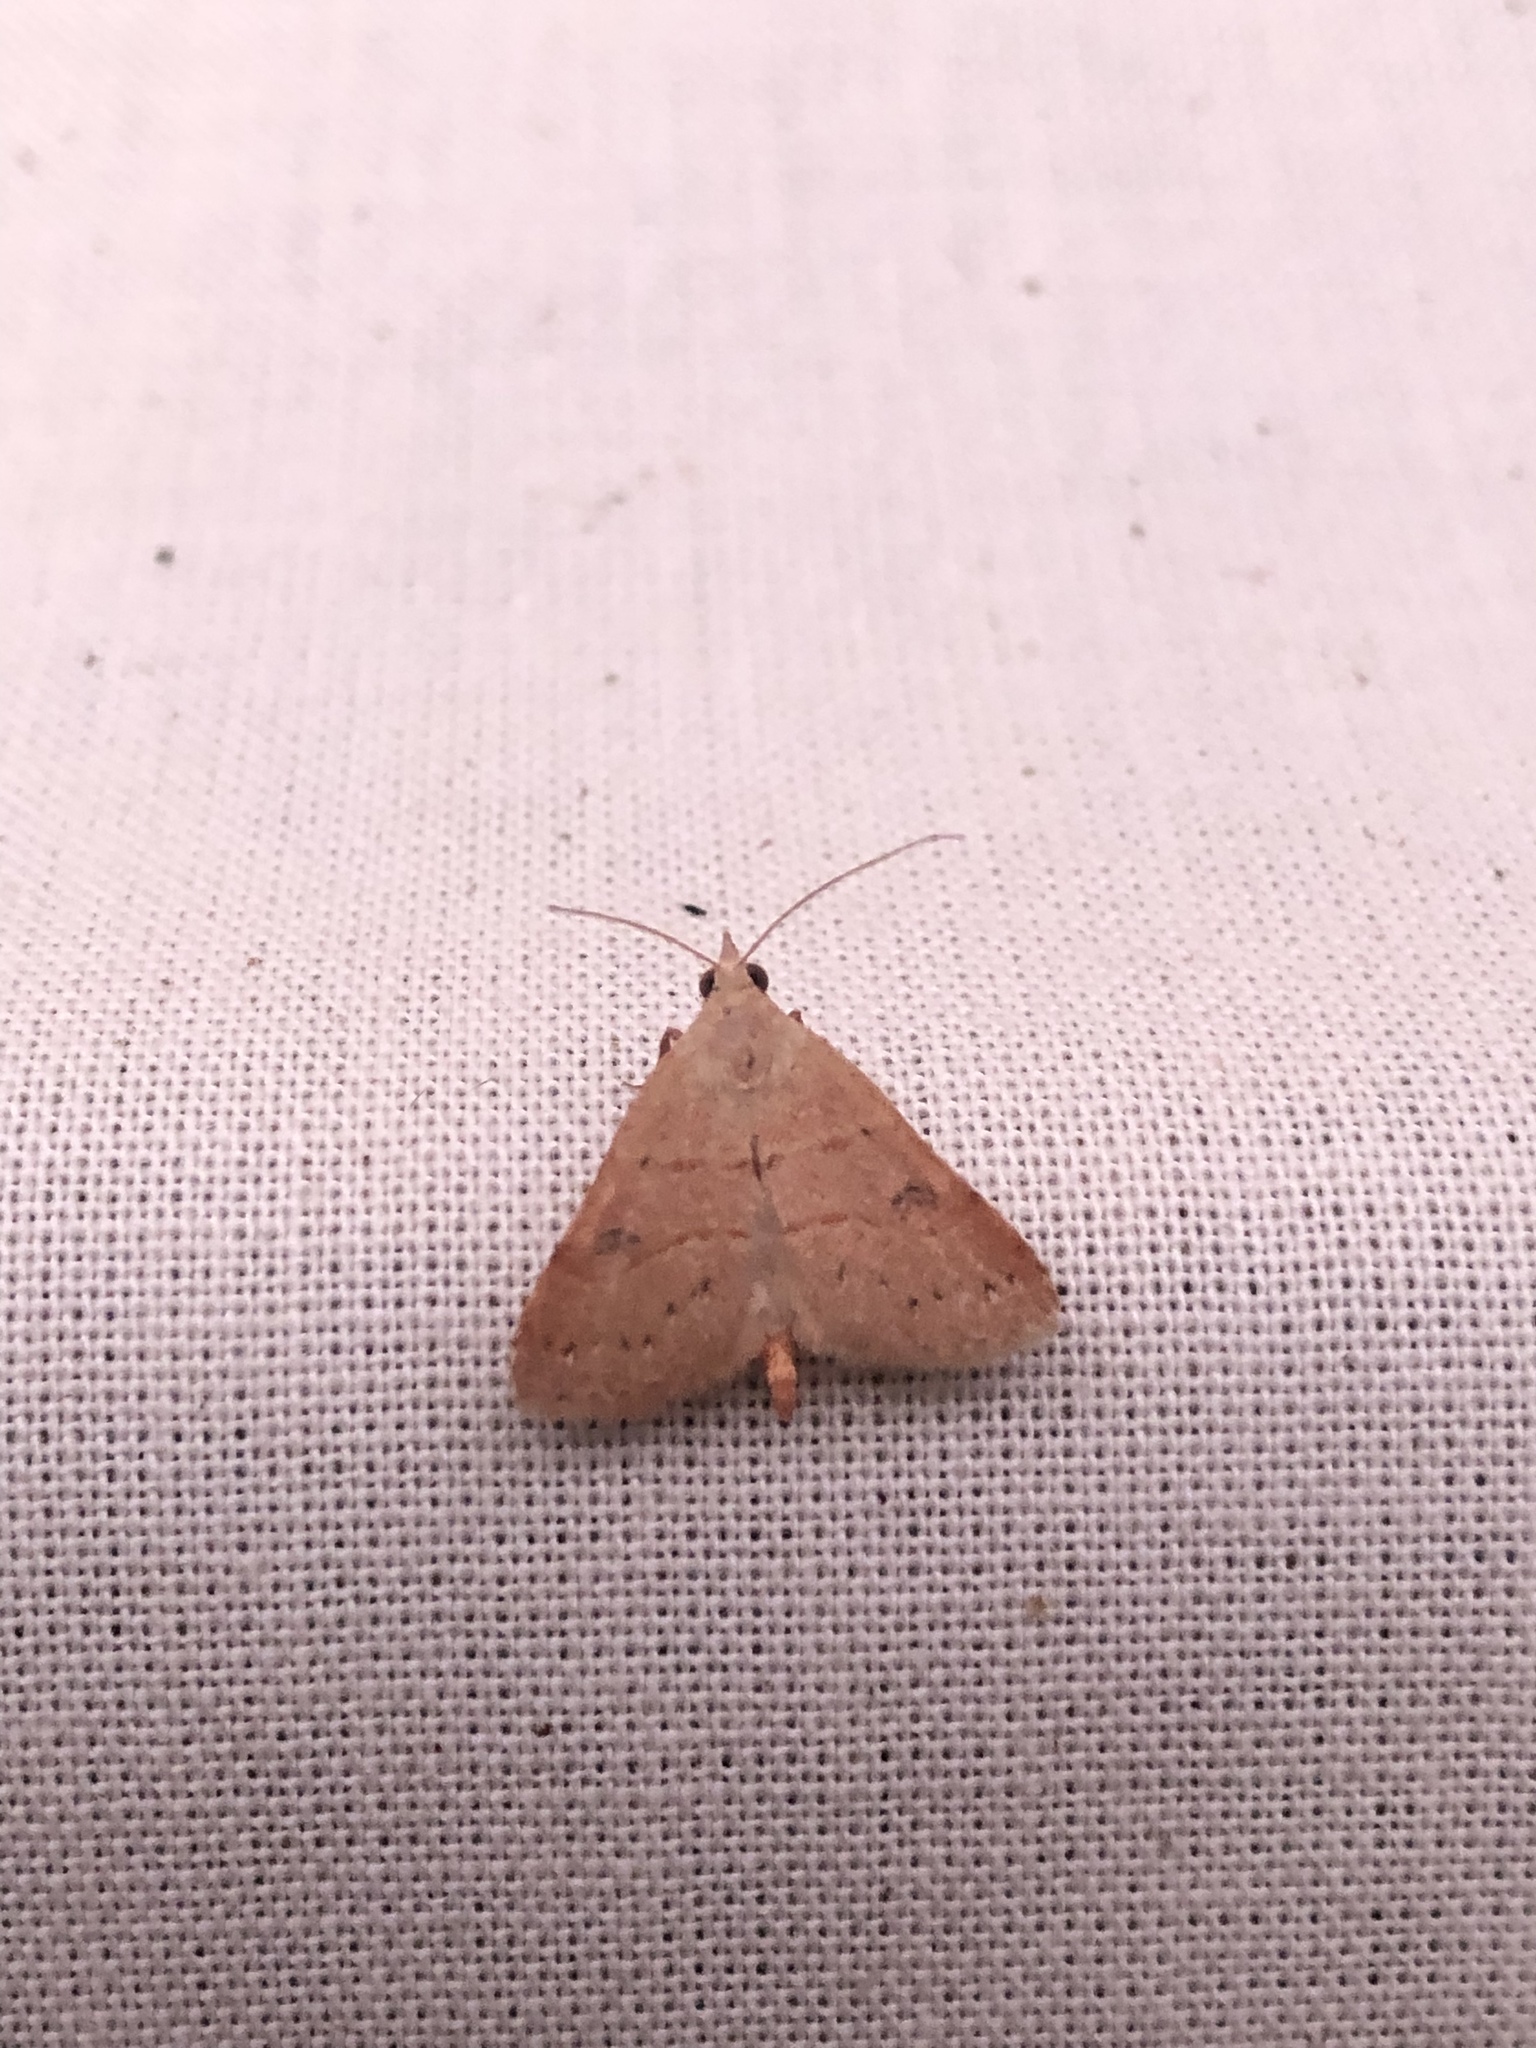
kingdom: Animalia
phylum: Arthropoda
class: Insecta
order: Lepidoptera
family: Erebidae
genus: Hemeroplanis
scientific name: Hemeroplanis habitalis
